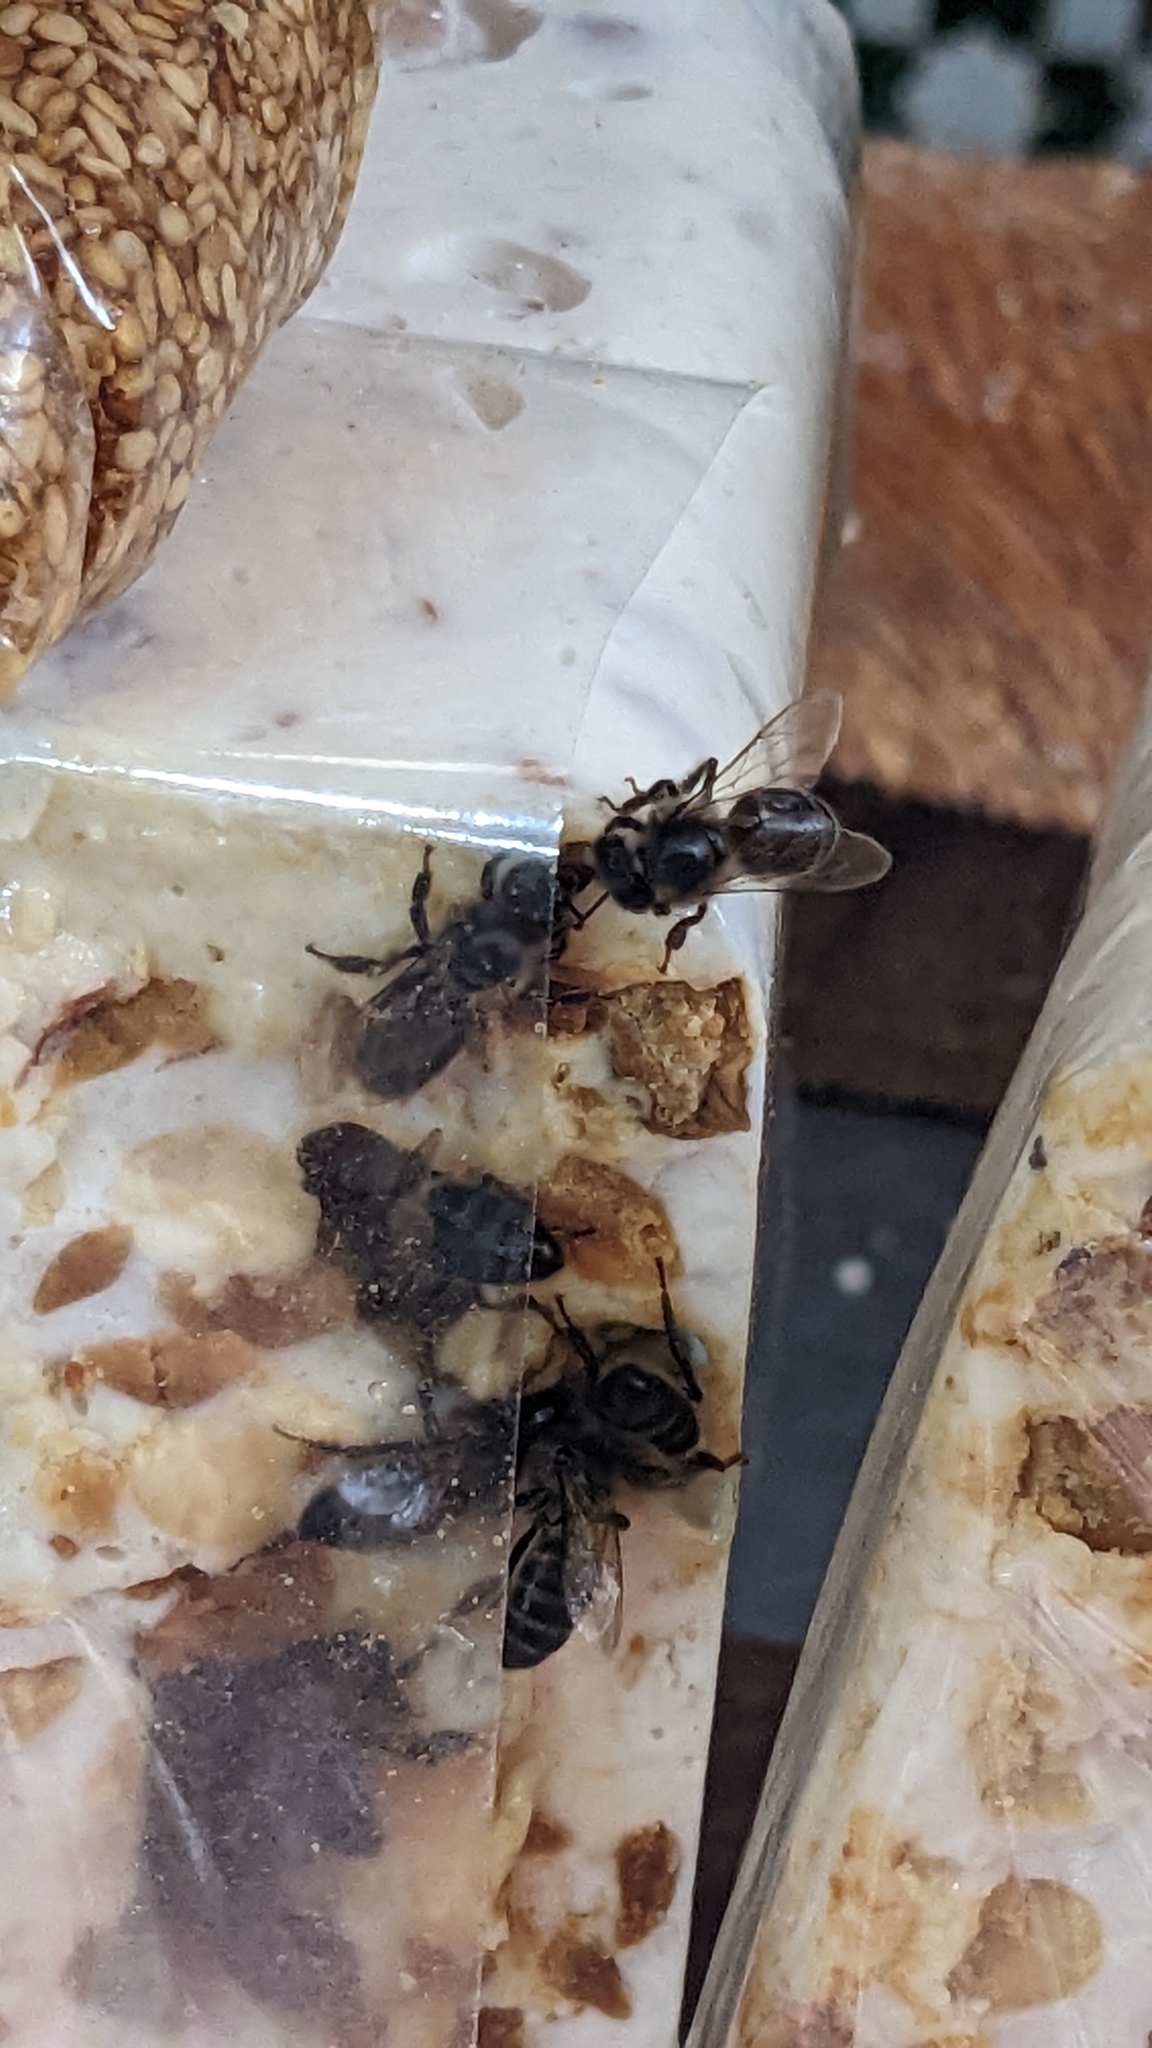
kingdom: Animalia
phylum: Arthropoda
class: Insecta
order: Hymenoptera
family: Apidae
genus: Apis
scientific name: Apis mellifera
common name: Honey bee
